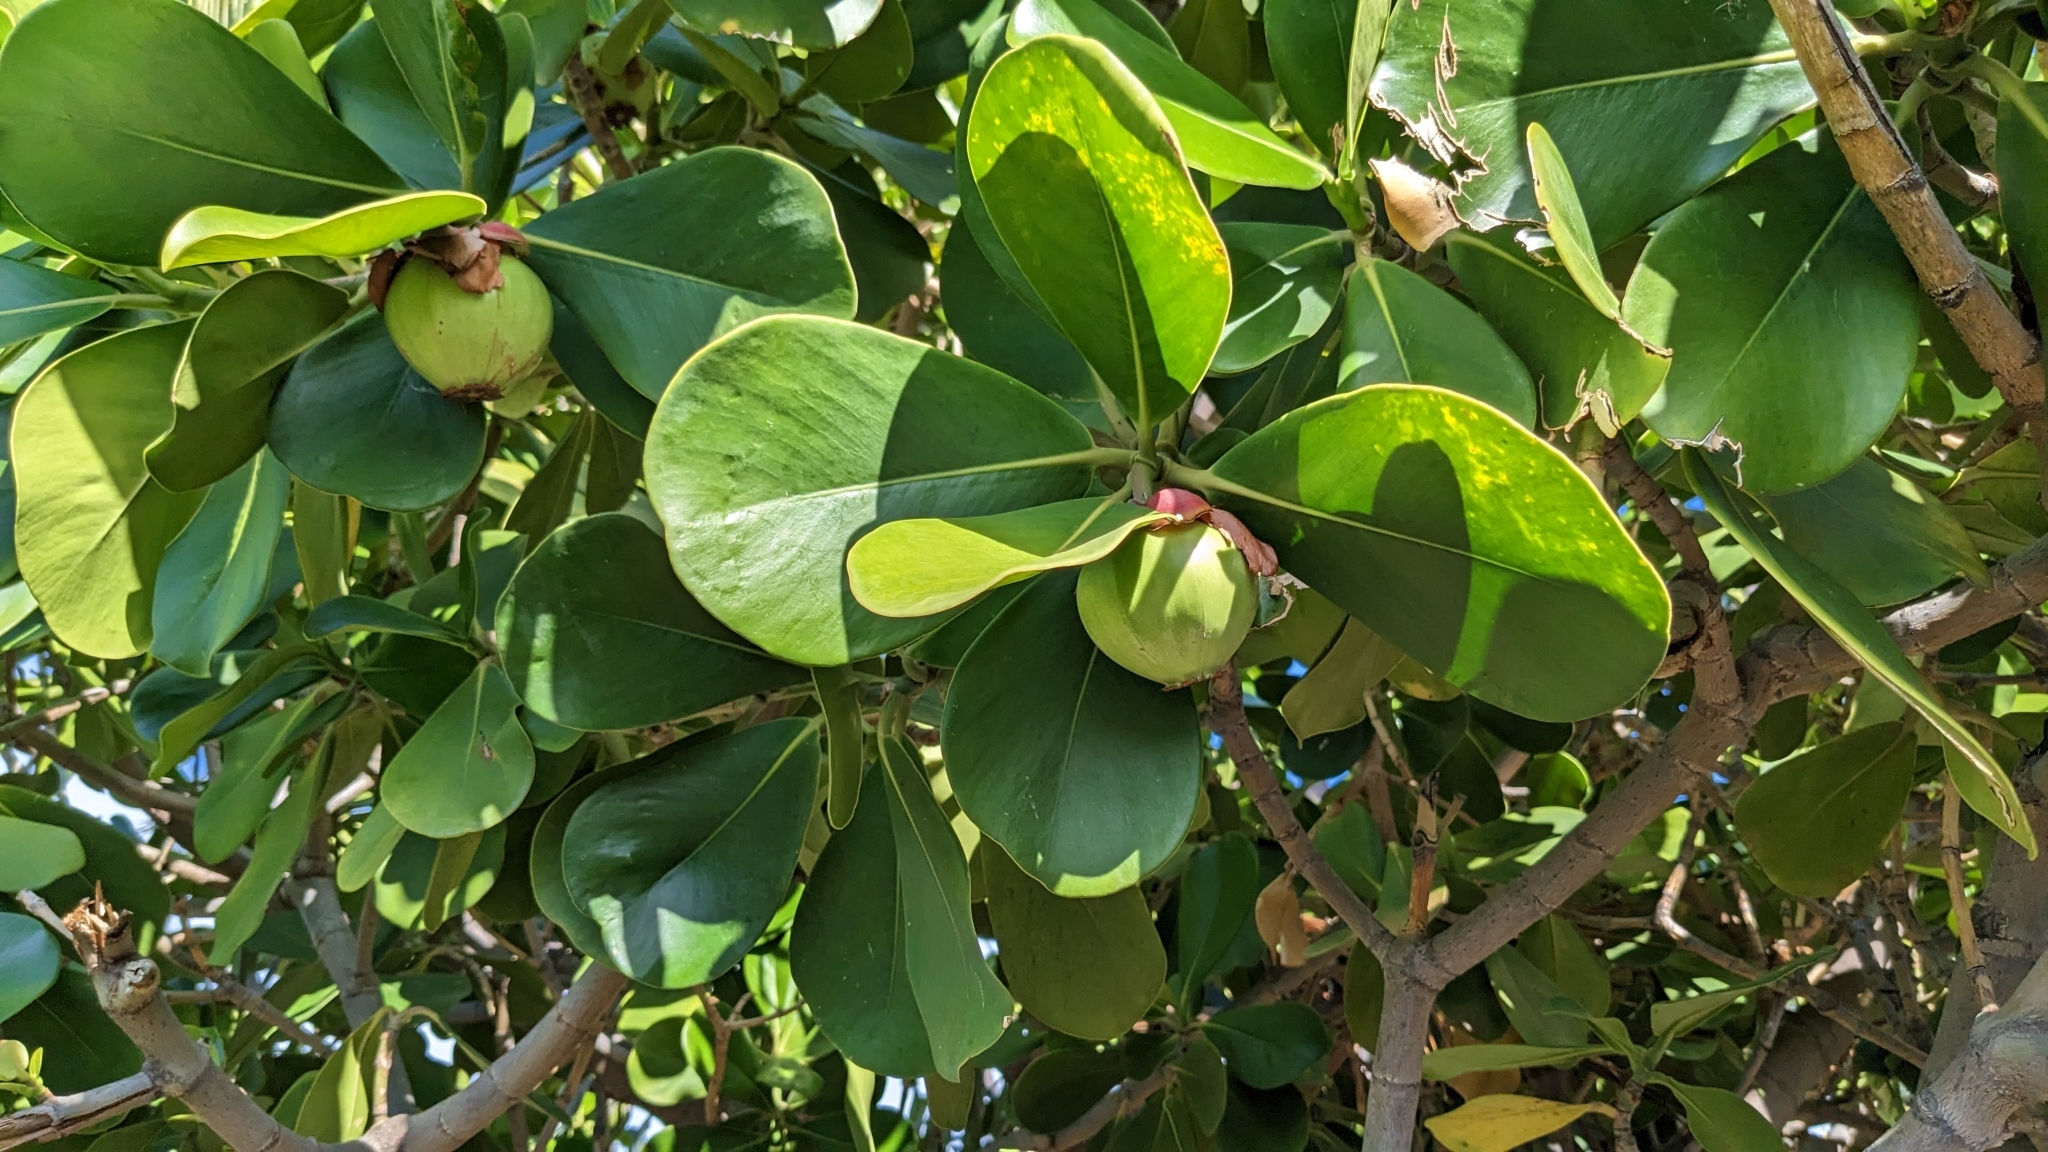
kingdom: Plantae
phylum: Tracheophyta
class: Magnoliopsida
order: Malpighiales
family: Clusiaceae
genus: Clusia
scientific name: Clusia rosea
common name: Scotch attorney
